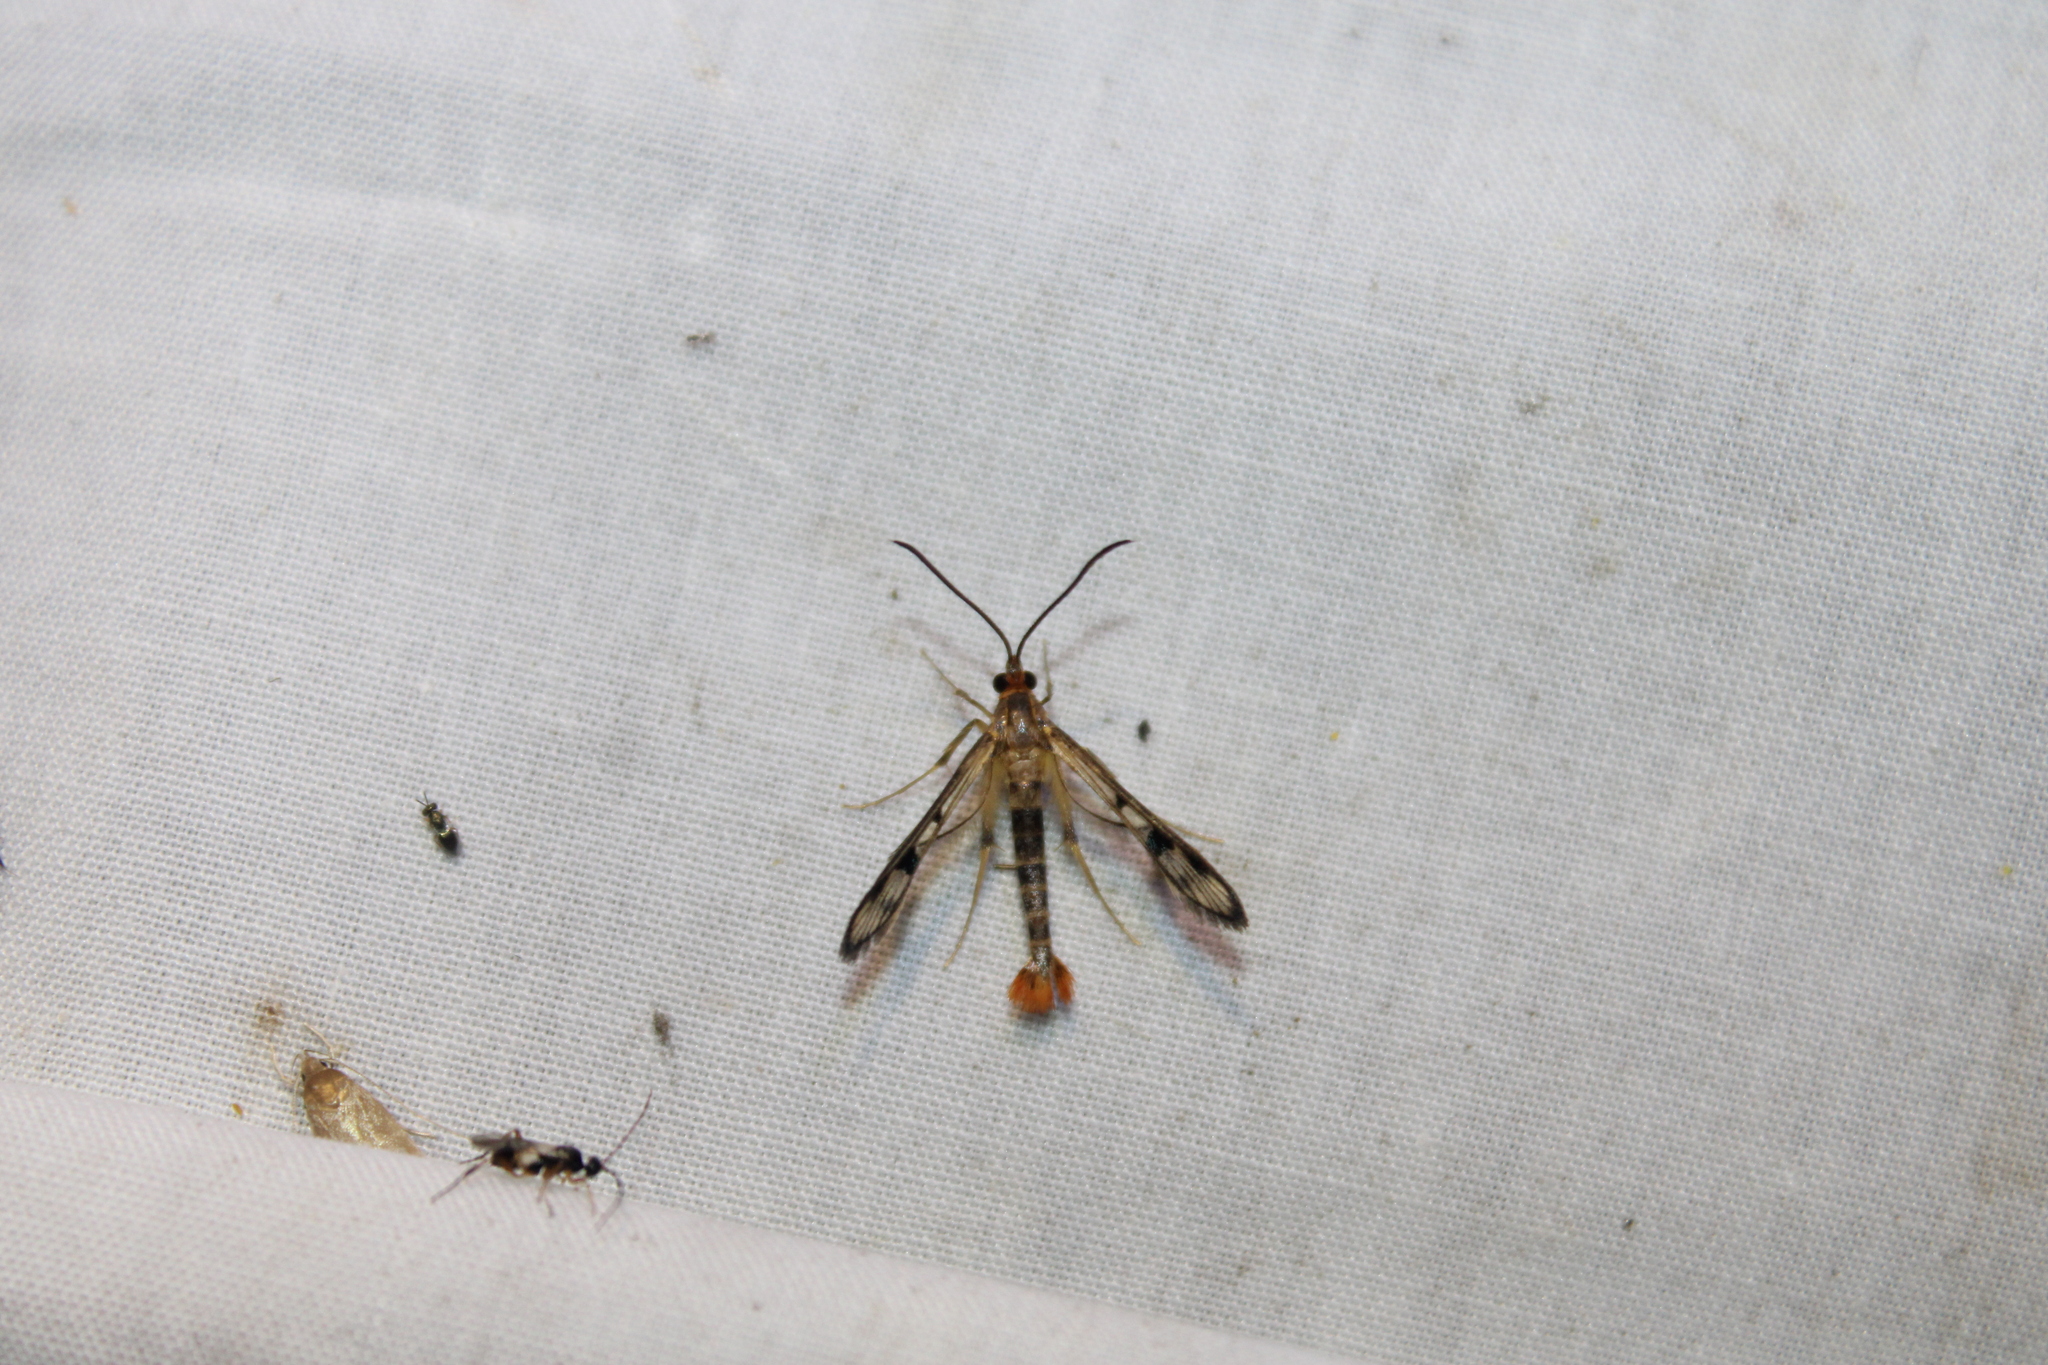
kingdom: Animalia
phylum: Arthropoda
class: Insecta
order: Lepidoptera
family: Sesiidae
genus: Synanthedon
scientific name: Synanthedon acerni
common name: Maple callus borer moth
